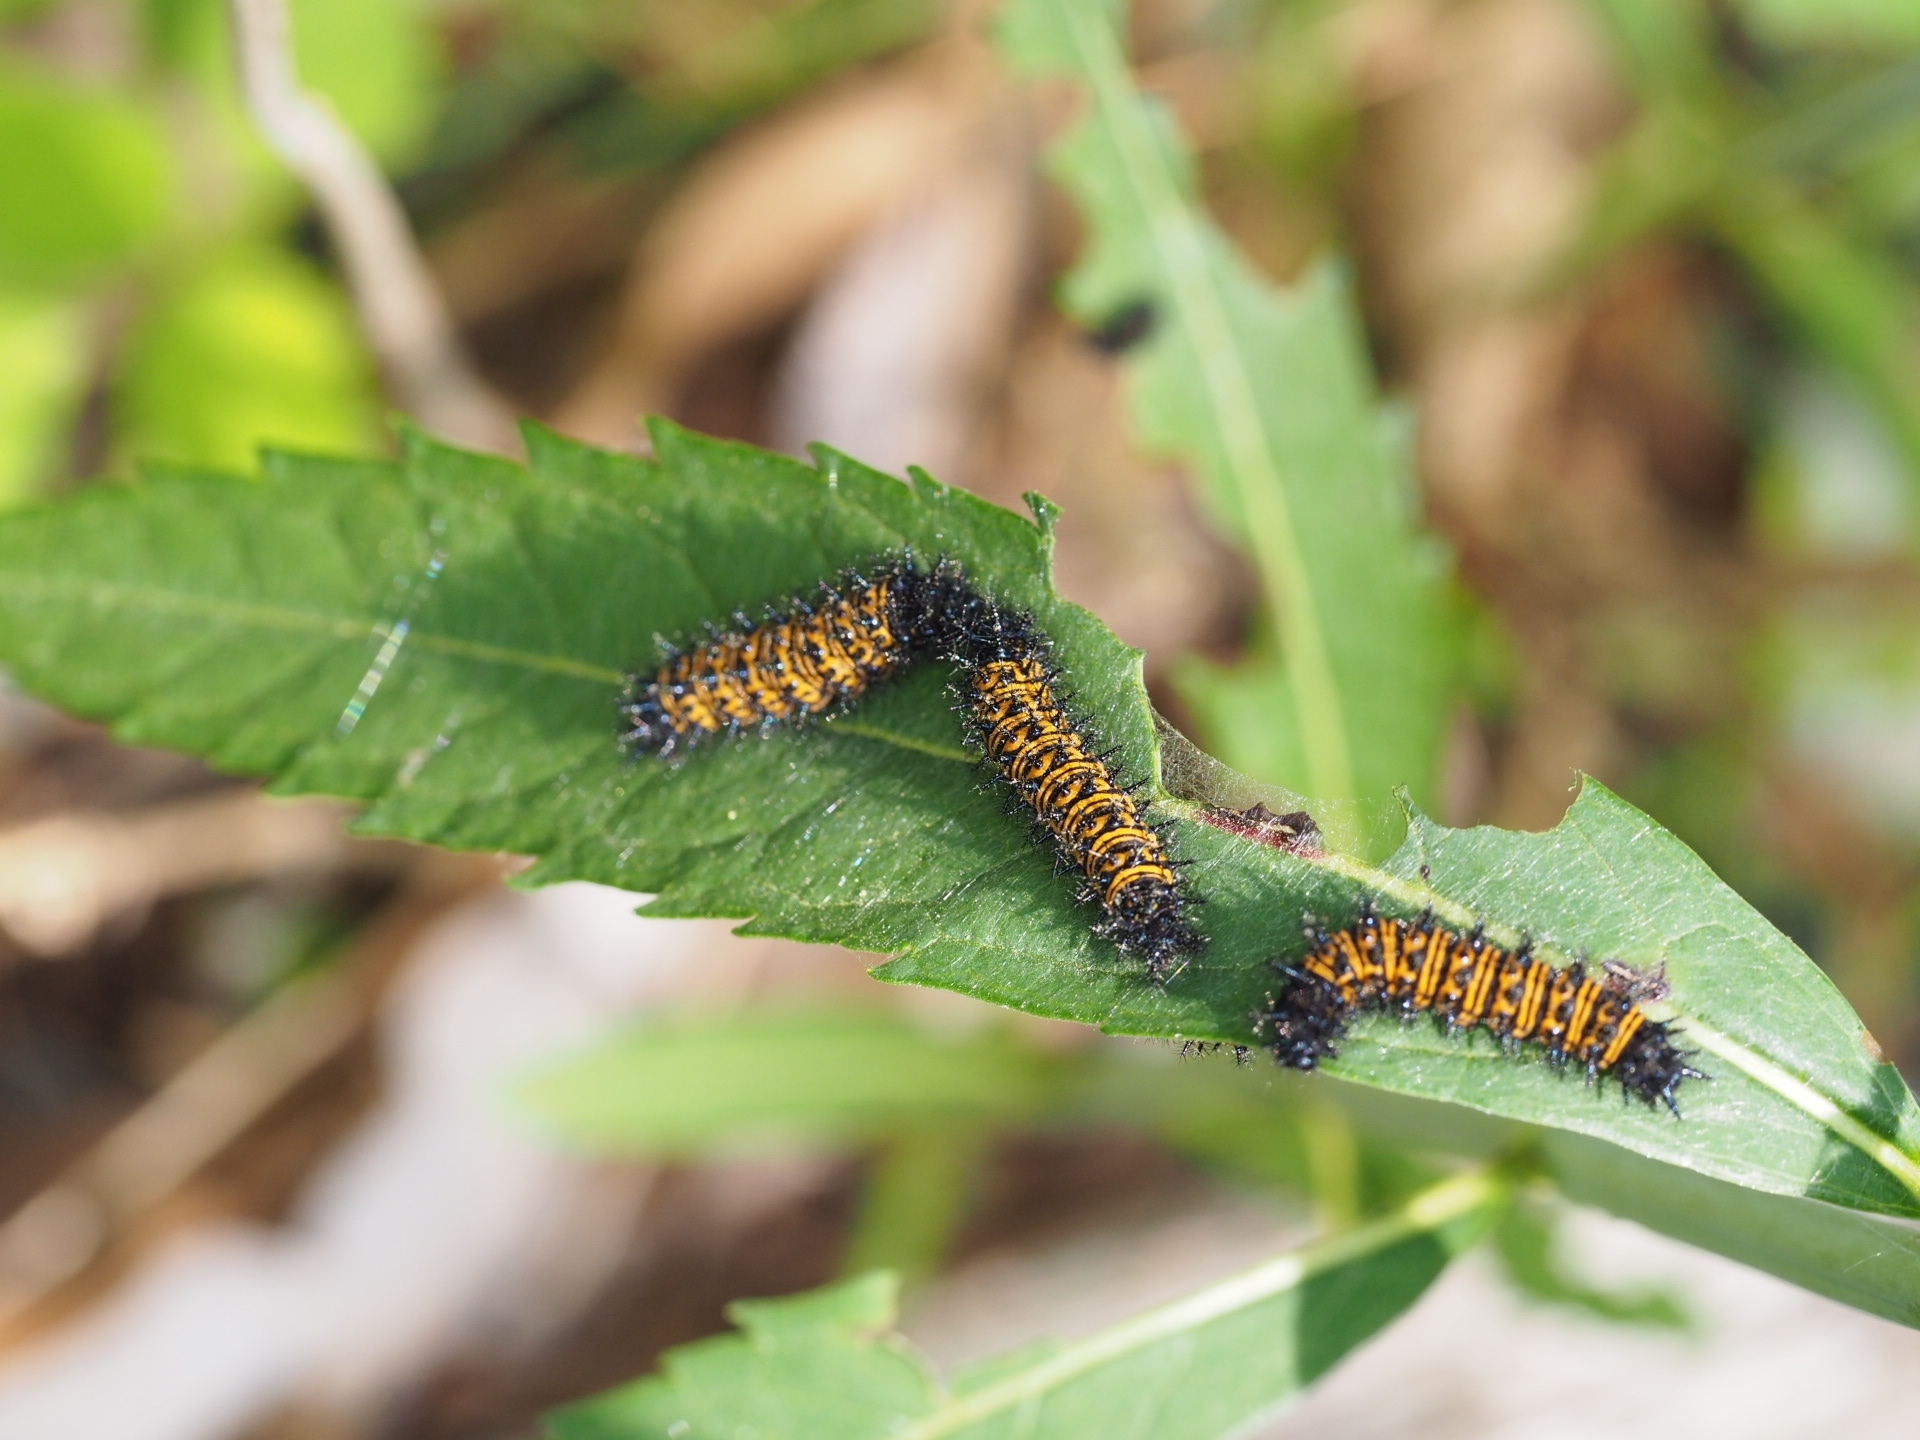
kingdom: Animalia
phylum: Arthropoda
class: Insecta
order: Lepidoptera
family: Nymphalidae
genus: Euphydryas
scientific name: Euphydryas phaeton
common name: Baltimore checkerspot
